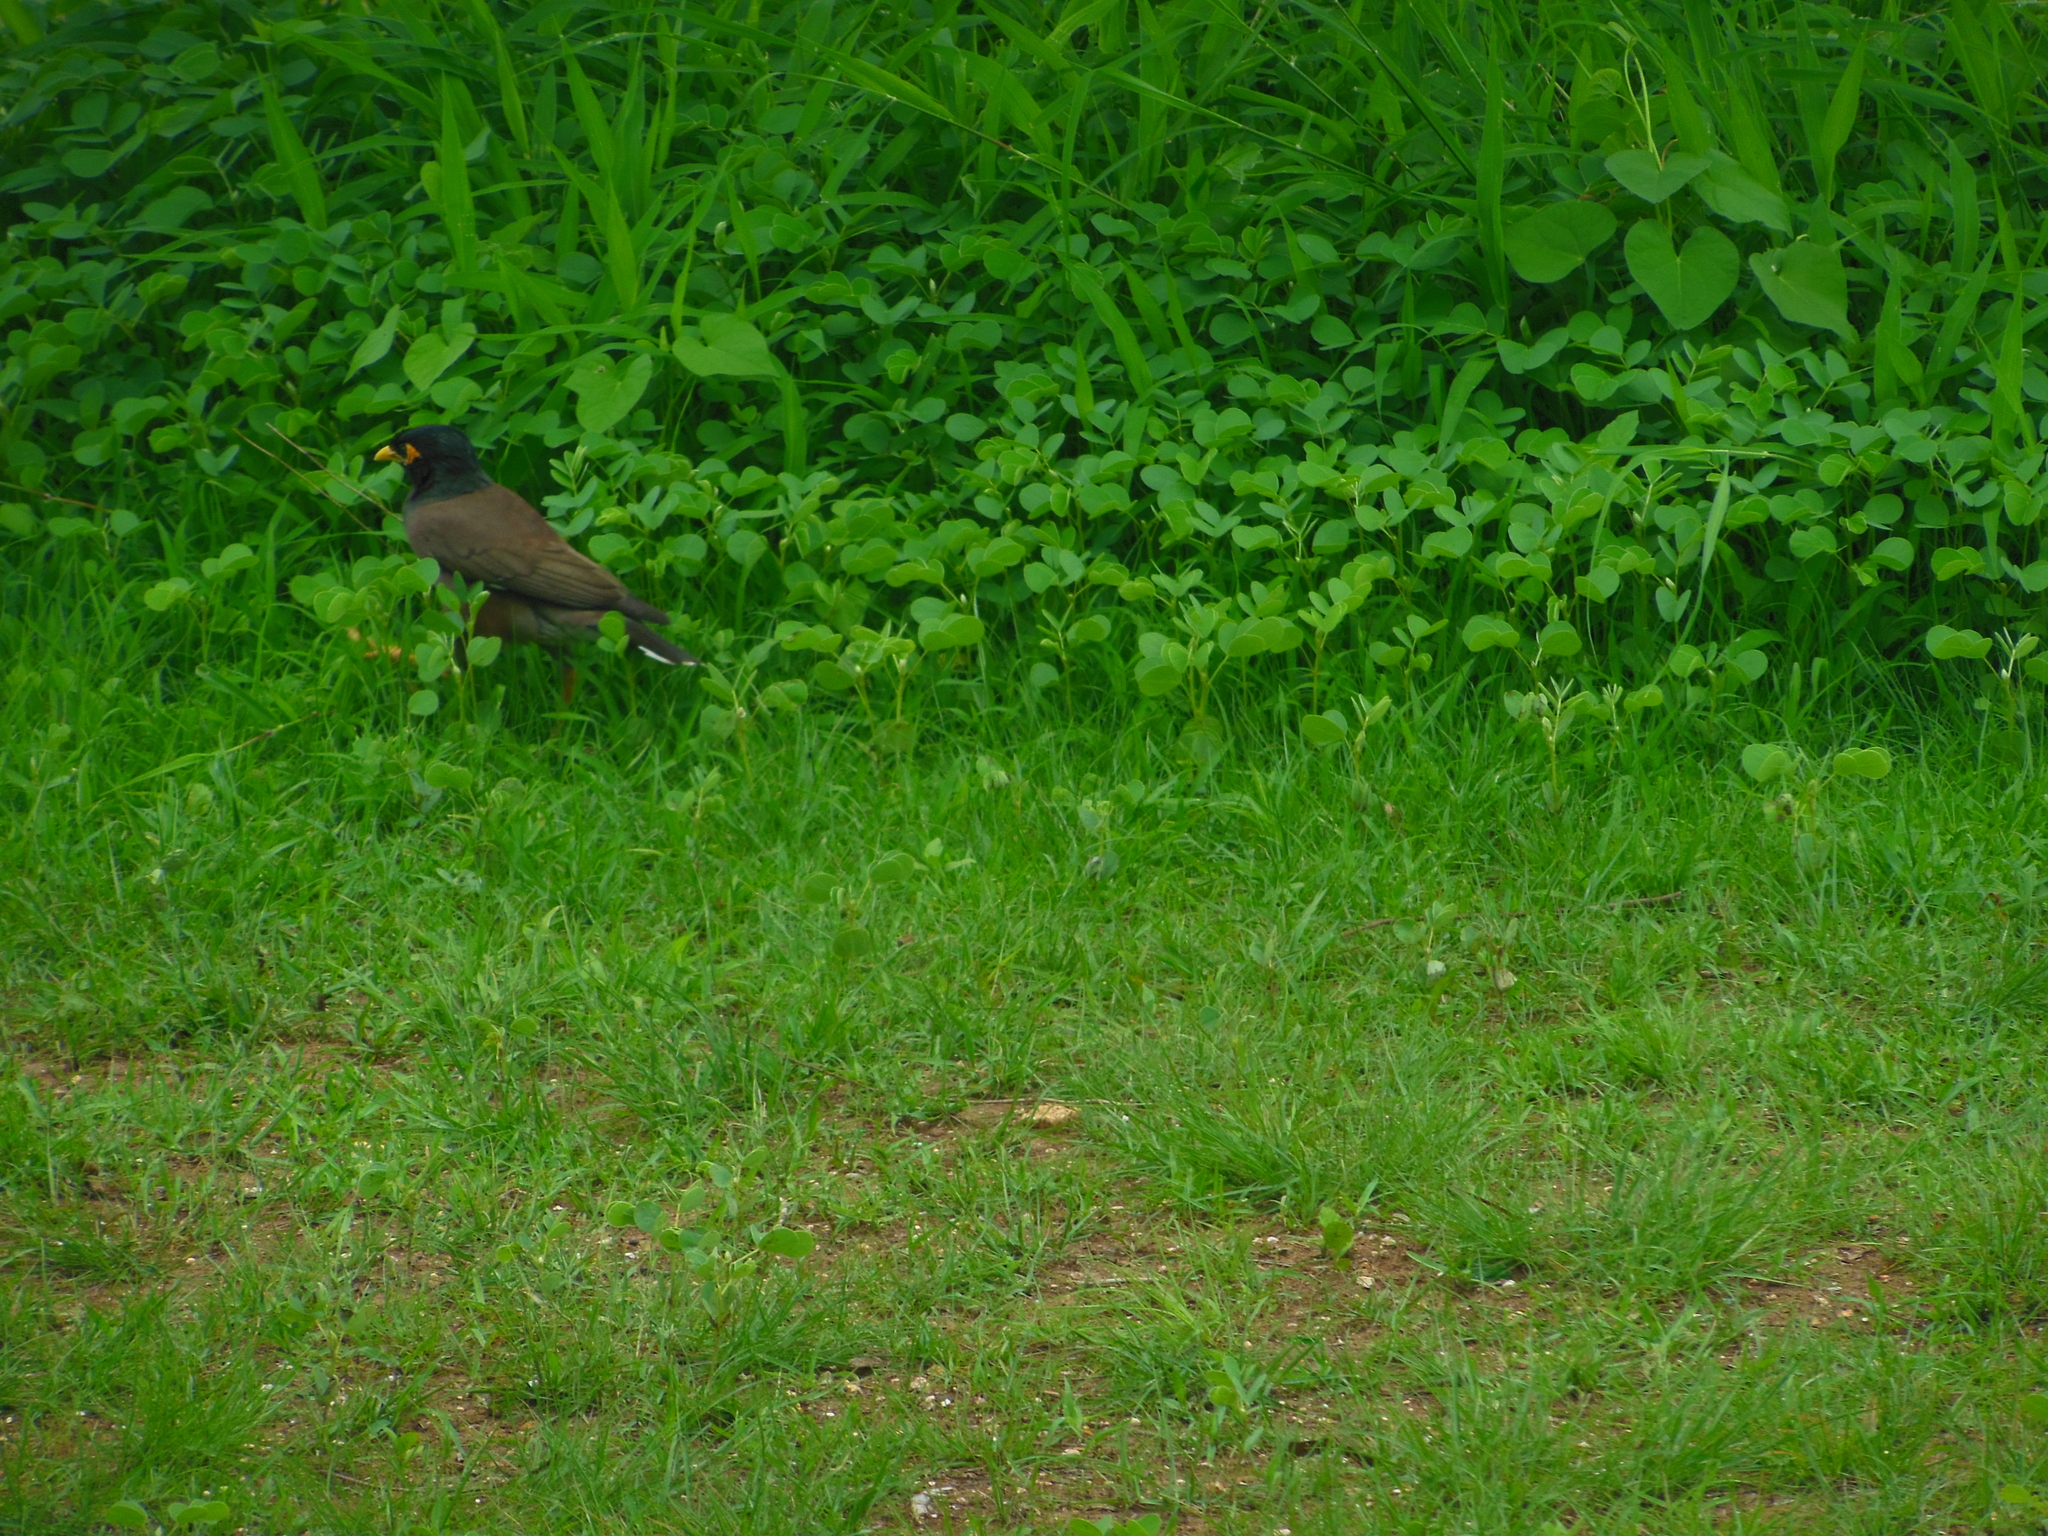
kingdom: Animalia
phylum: Chordata
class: Aves
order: Passeriformes
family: Sturnidae
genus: Acridotheres
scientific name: Acridotheres tristis
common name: Common myna
